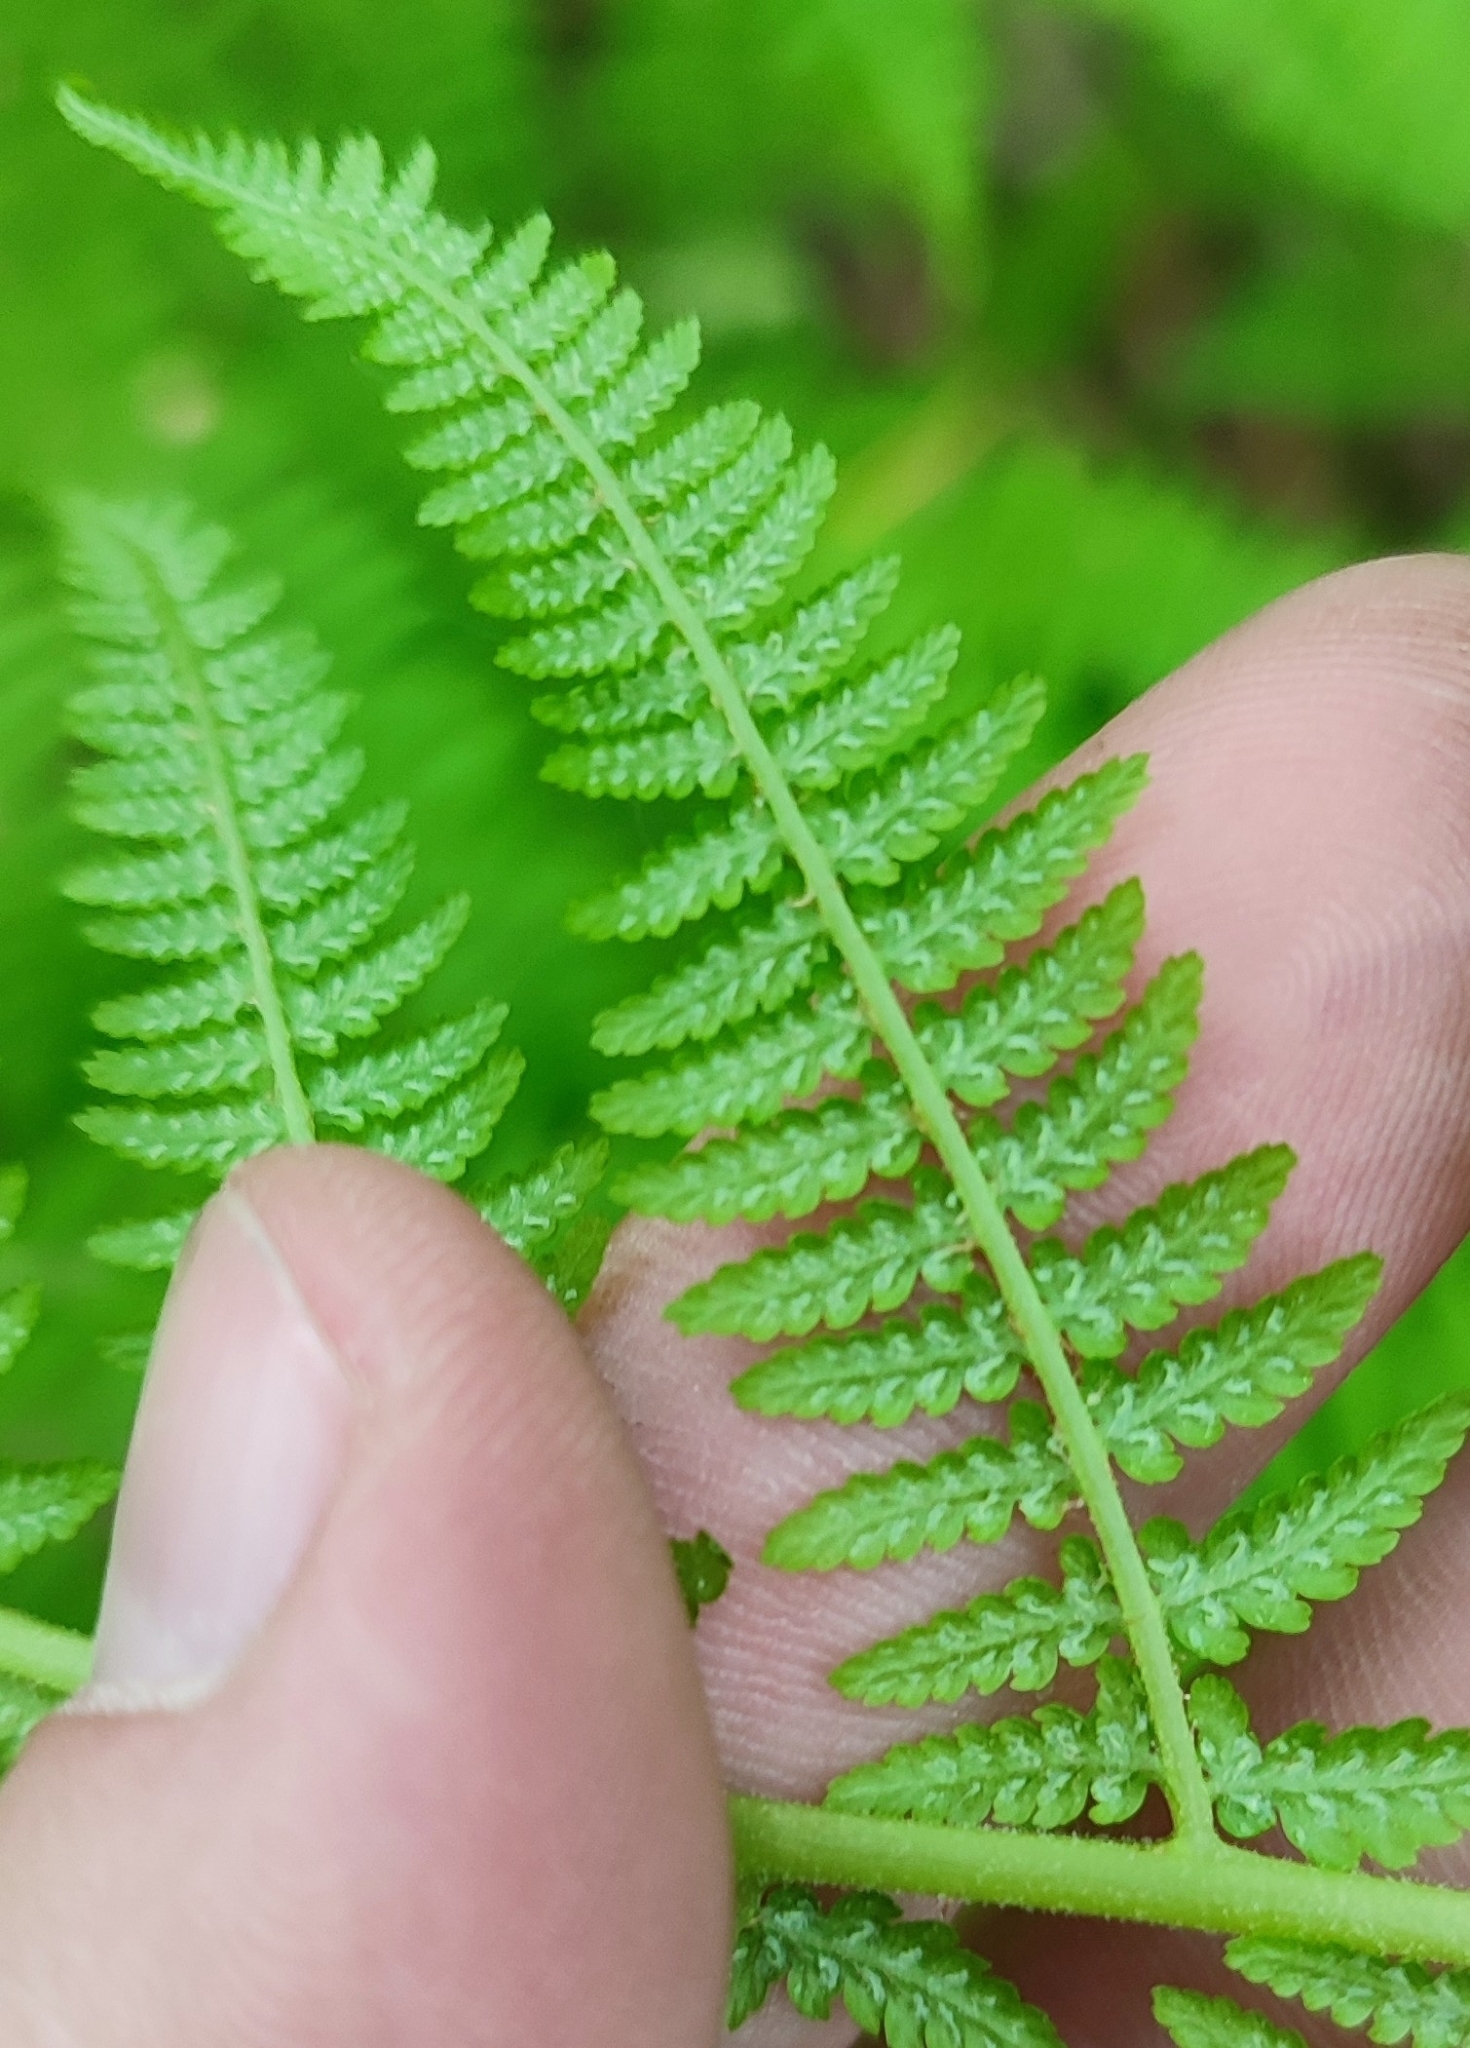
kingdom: Plantae
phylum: Tracheophyta
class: Polypodiopsida
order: Polypodiales
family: Athyriaceae
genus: Athyrium
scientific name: Athyrium filix-femina
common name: Lady fern
